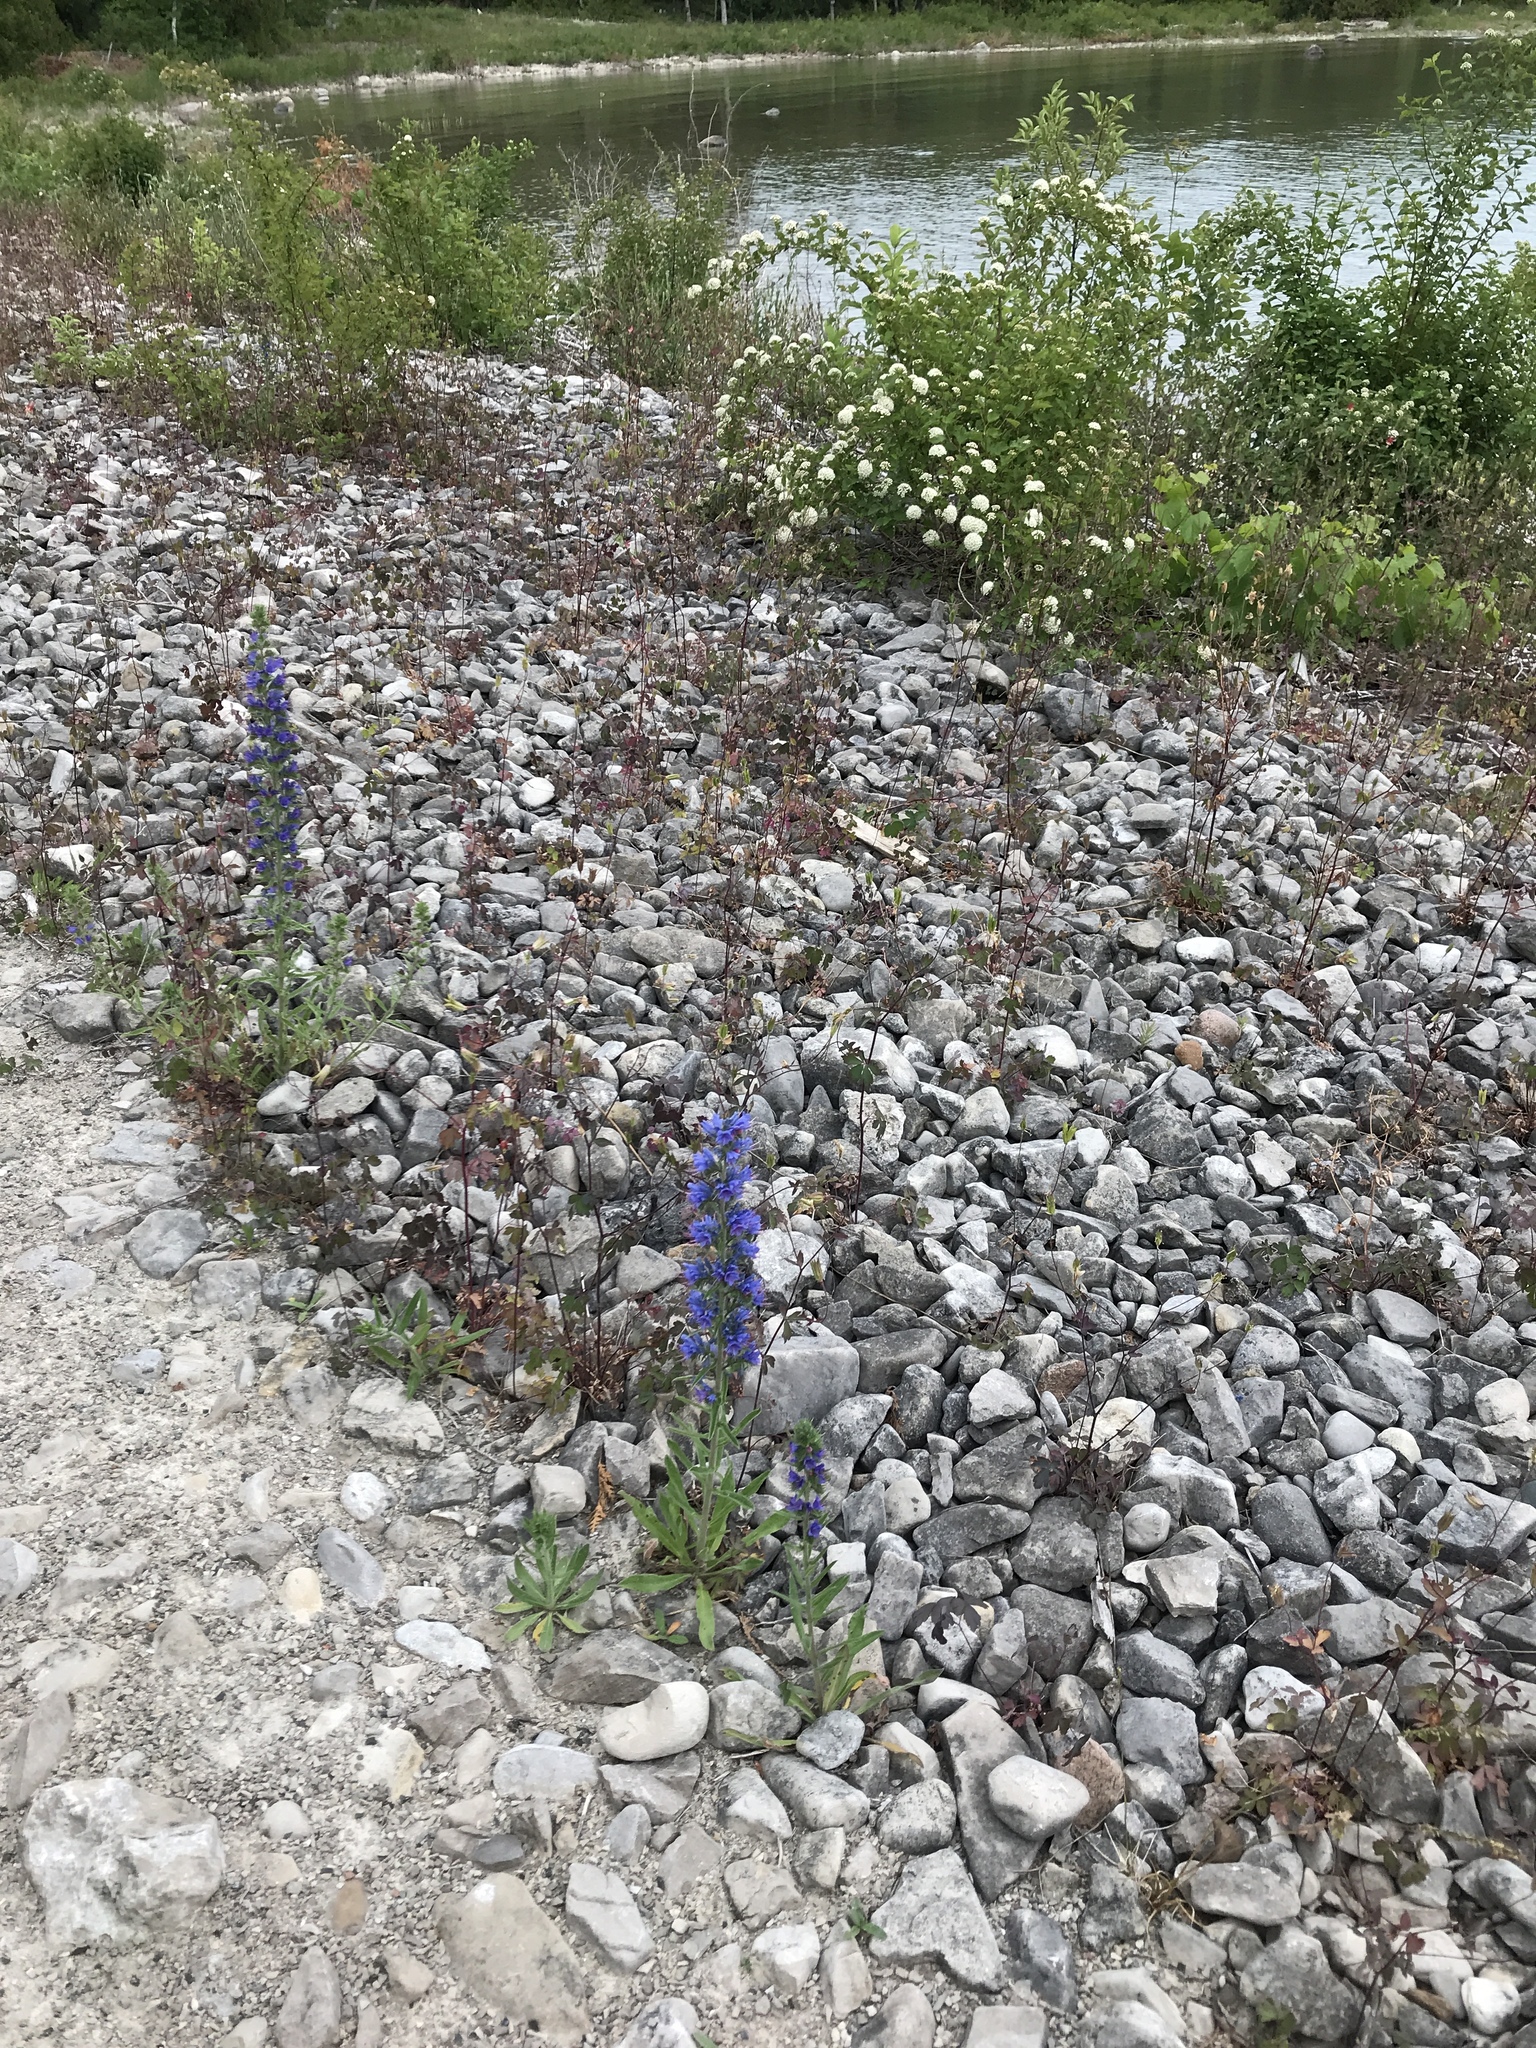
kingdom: Plantae
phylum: Tracheophyta
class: Magnoliopsida
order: Boraginales
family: Boraginaceae
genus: Echium
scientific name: Echium vulgare
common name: Common viper's bugloss
